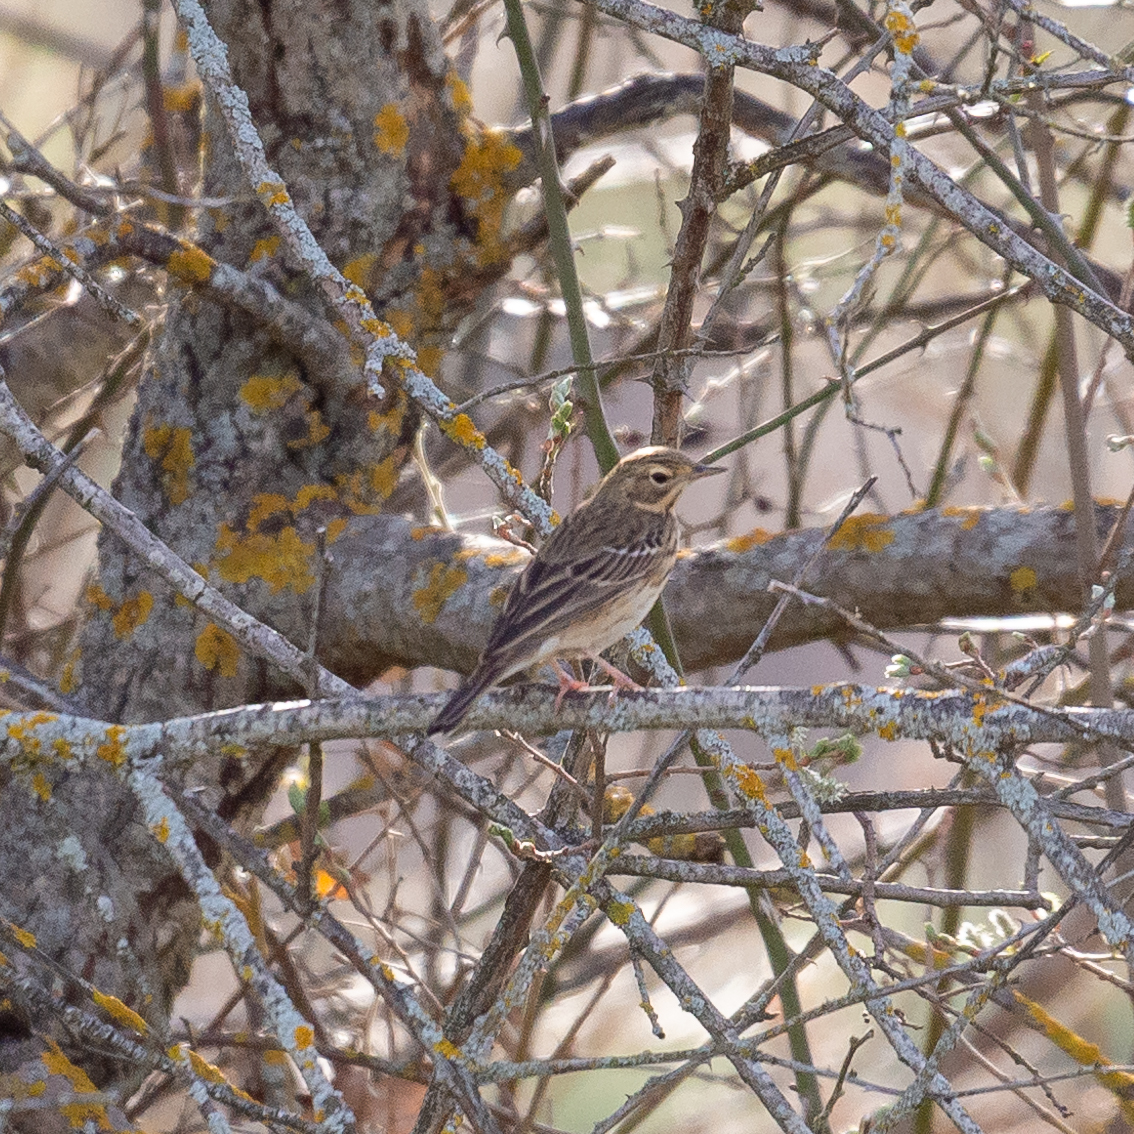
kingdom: Animalia
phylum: Chordata
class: Aves
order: Passeriformes
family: Motacillidae
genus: Anthus
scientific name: Anthus trivialis
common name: Tree pipit
